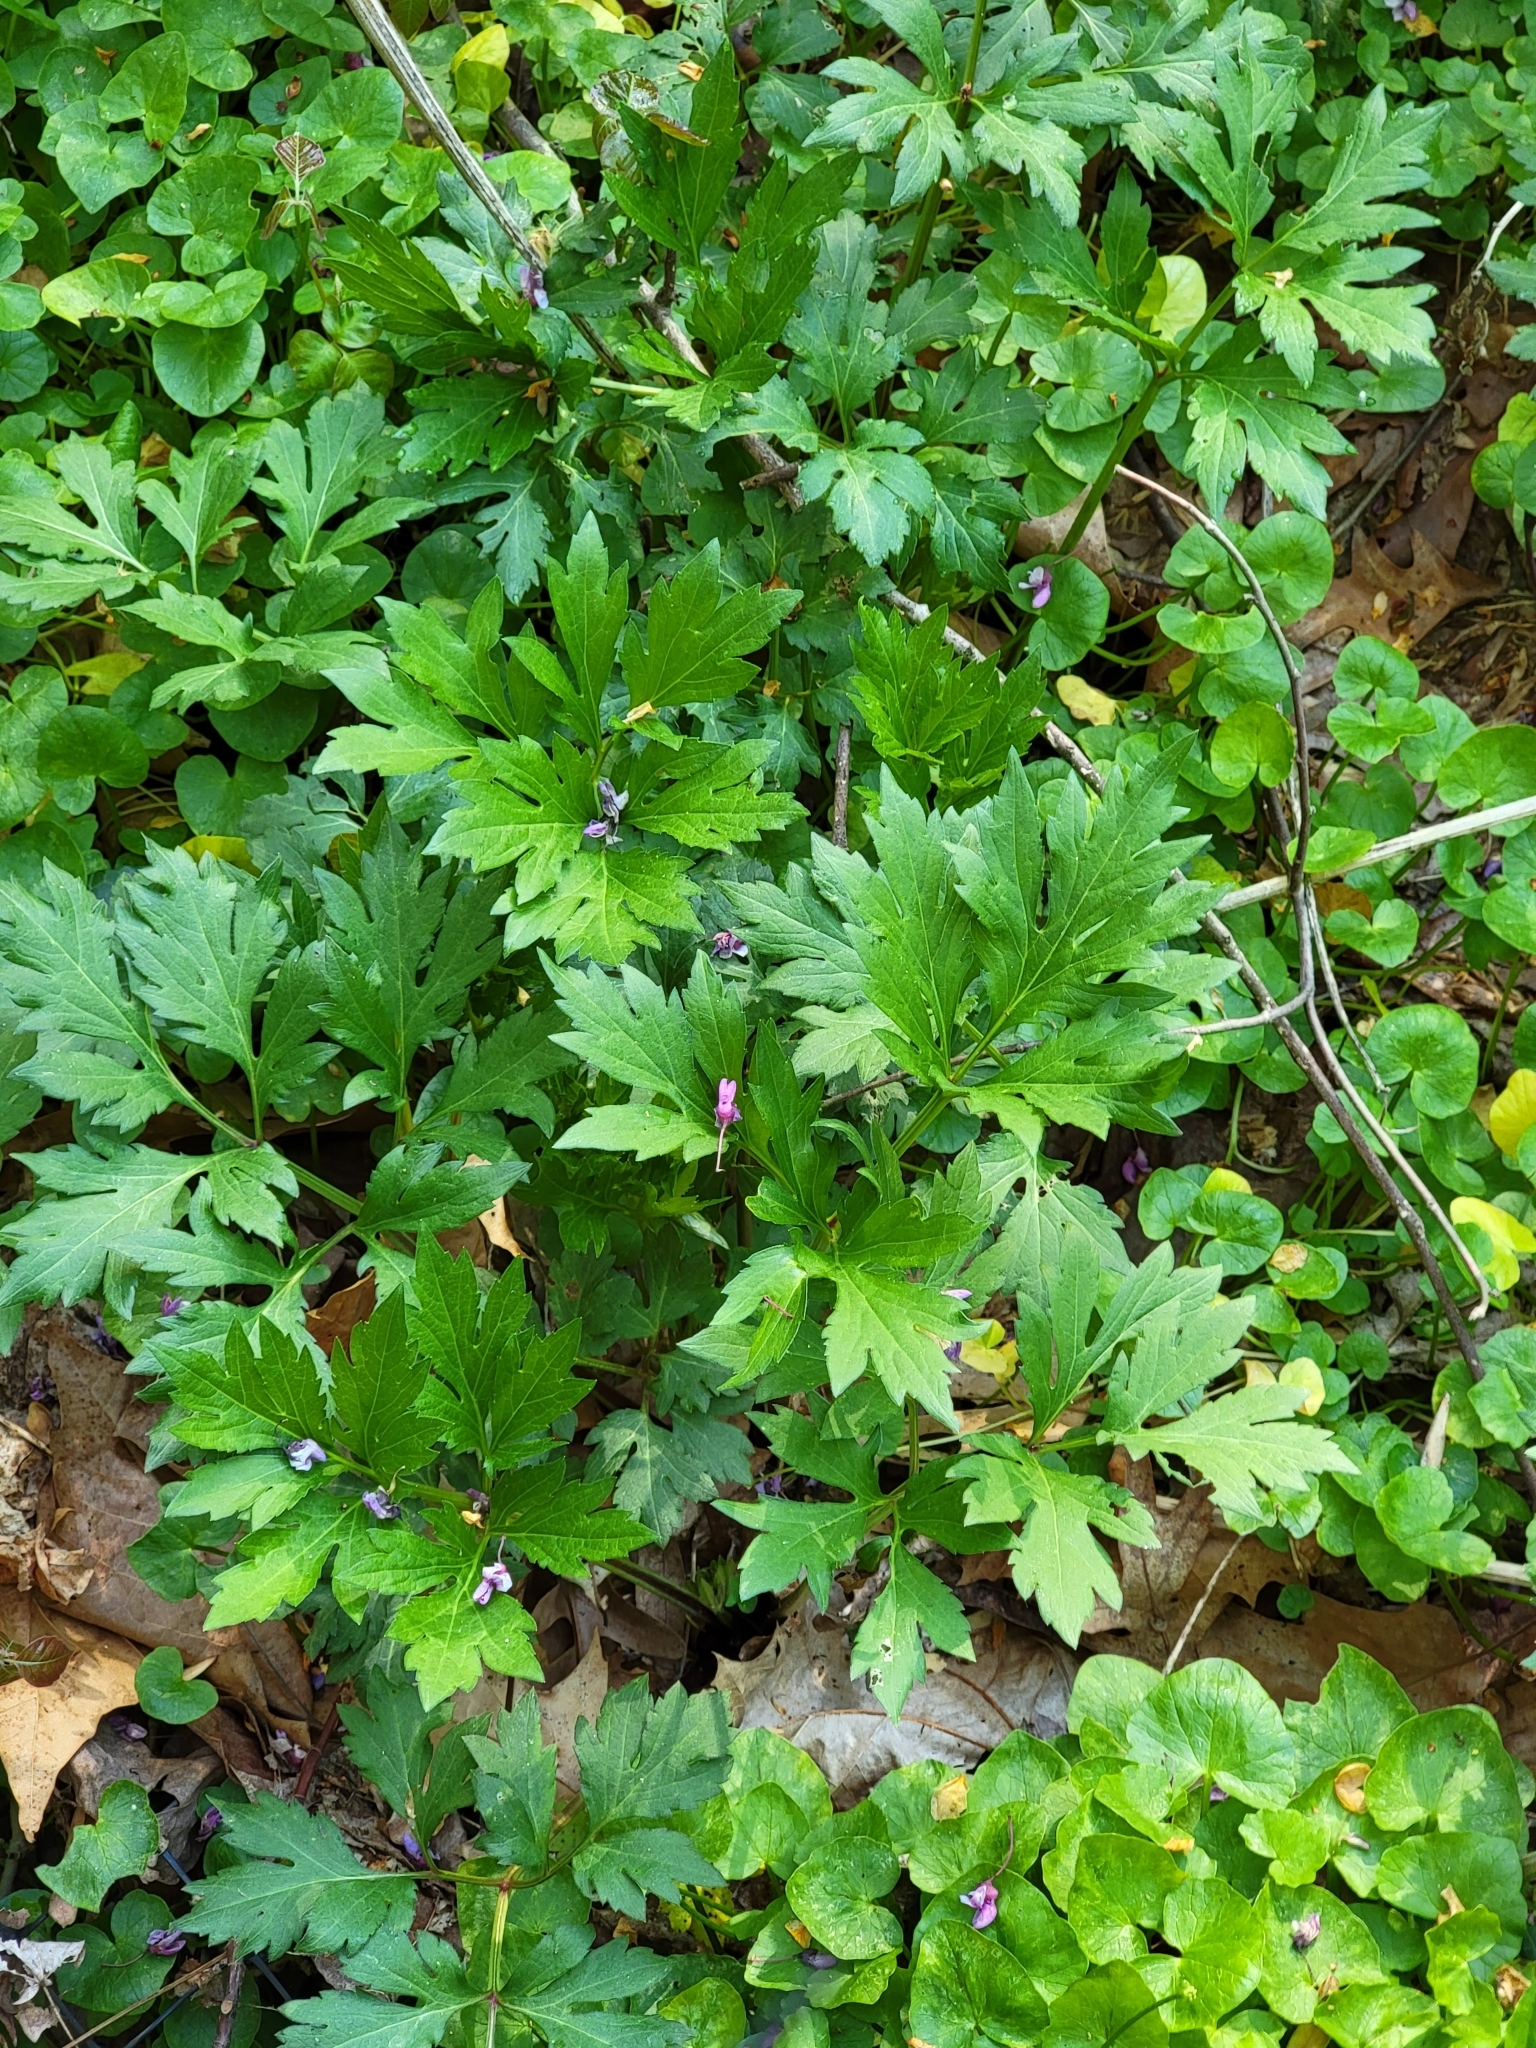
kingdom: Plantae
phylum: Tracheophyta
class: Magnoliopsida
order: Asterales
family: Asteraceae
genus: Rudbeckia
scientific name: Rudbeckia laciniata
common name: Coneflower
